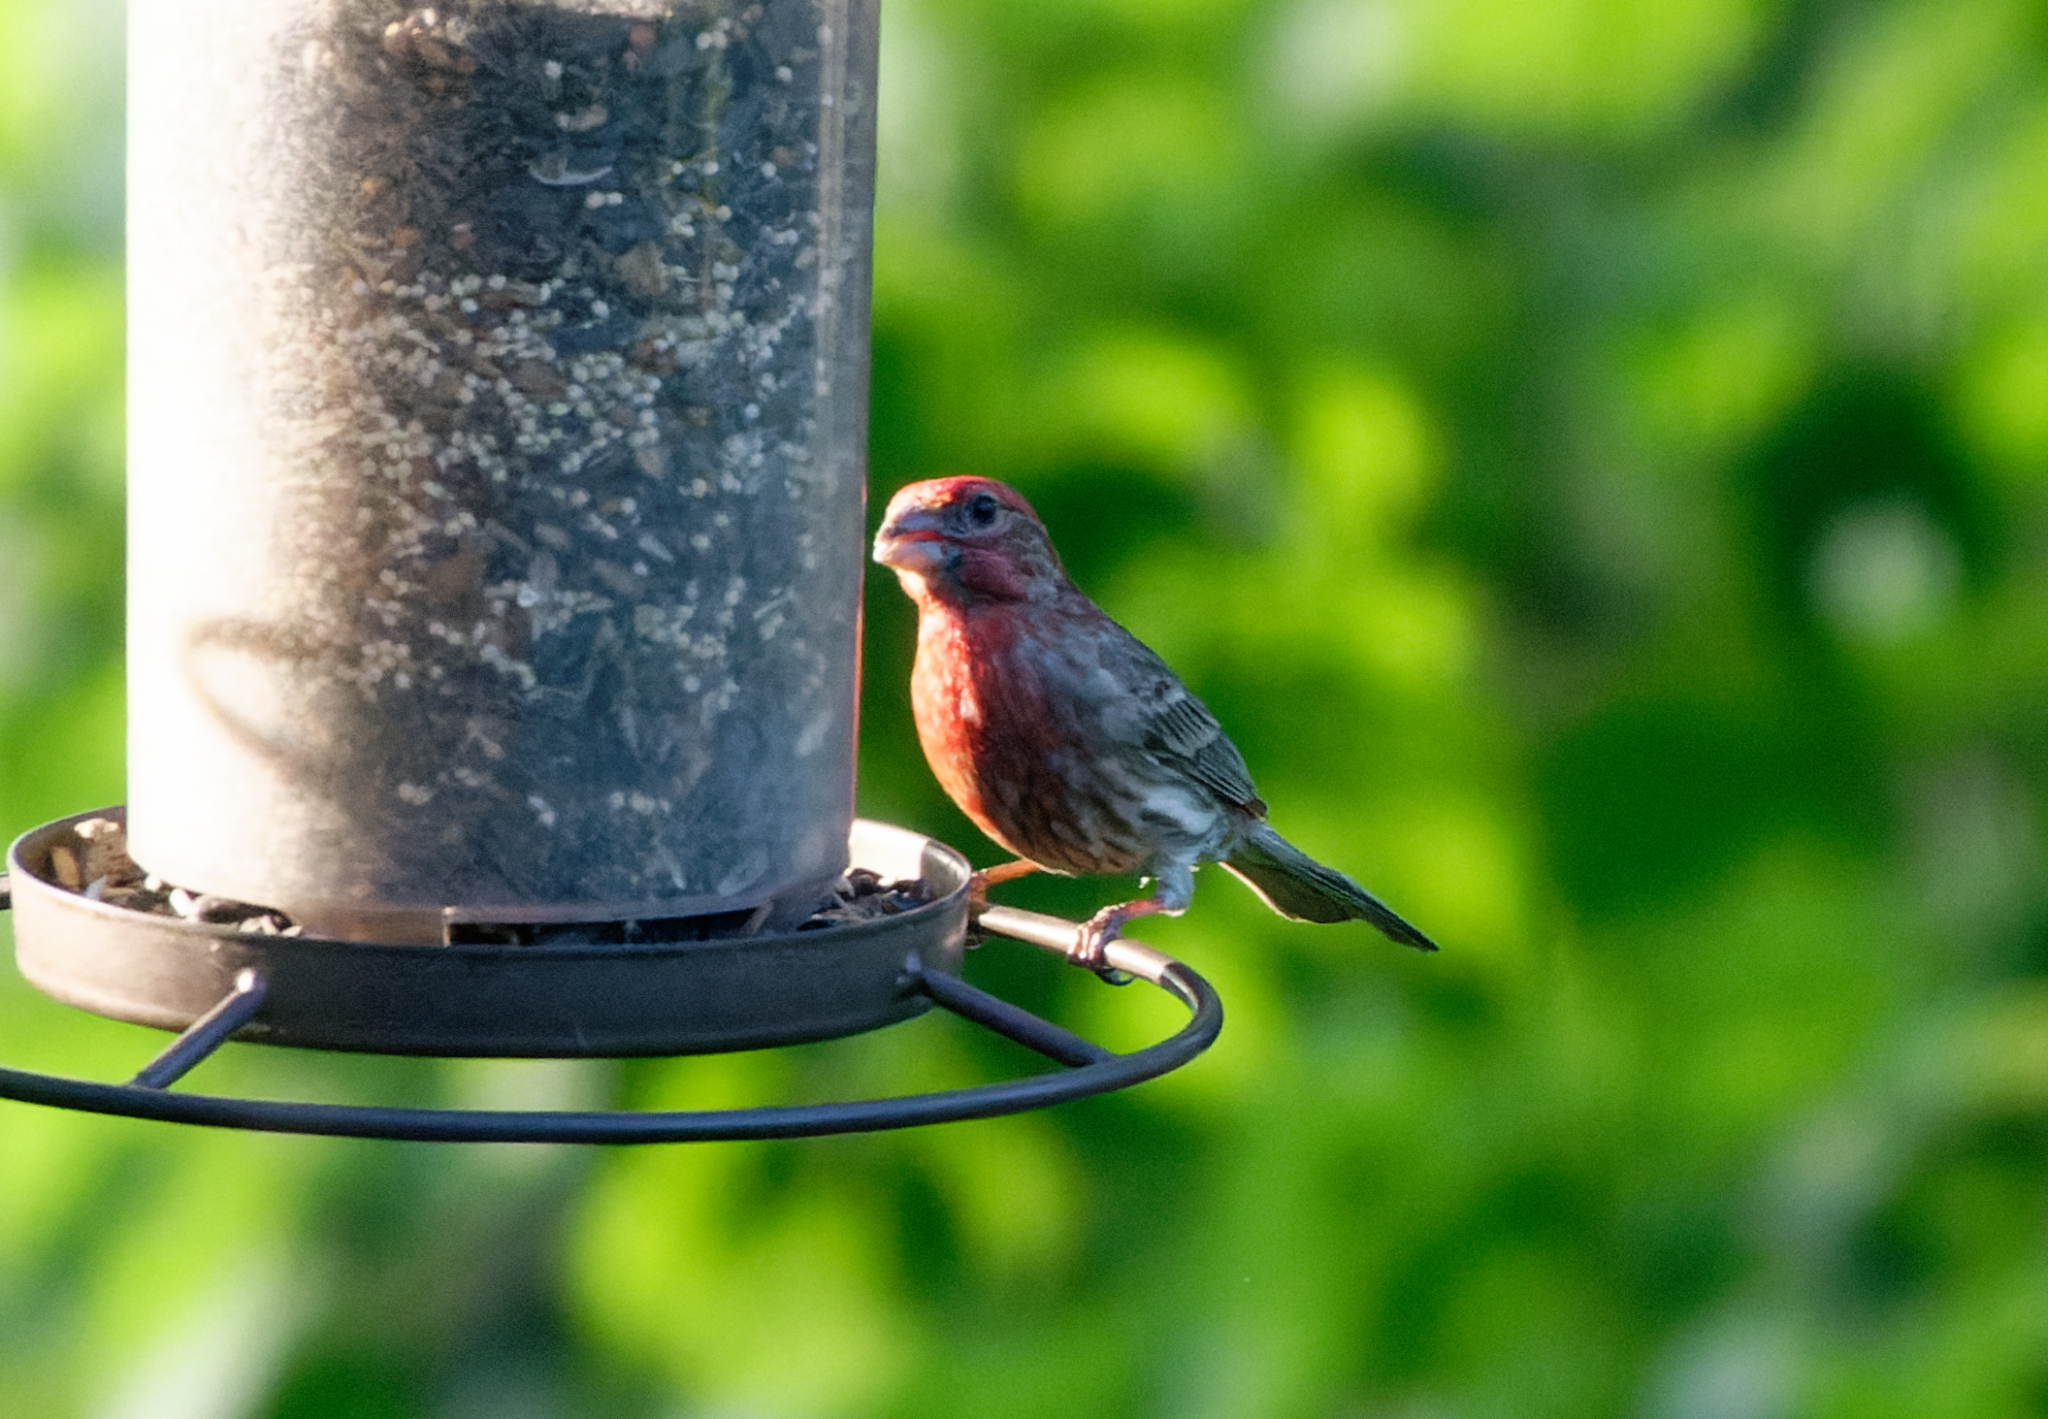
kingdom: Animalia
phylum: Chordata
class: Aves
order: Passeriformes
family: Fringillidae
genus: Haemorhous
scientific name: Haemorhous mexicanus
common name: House finch
